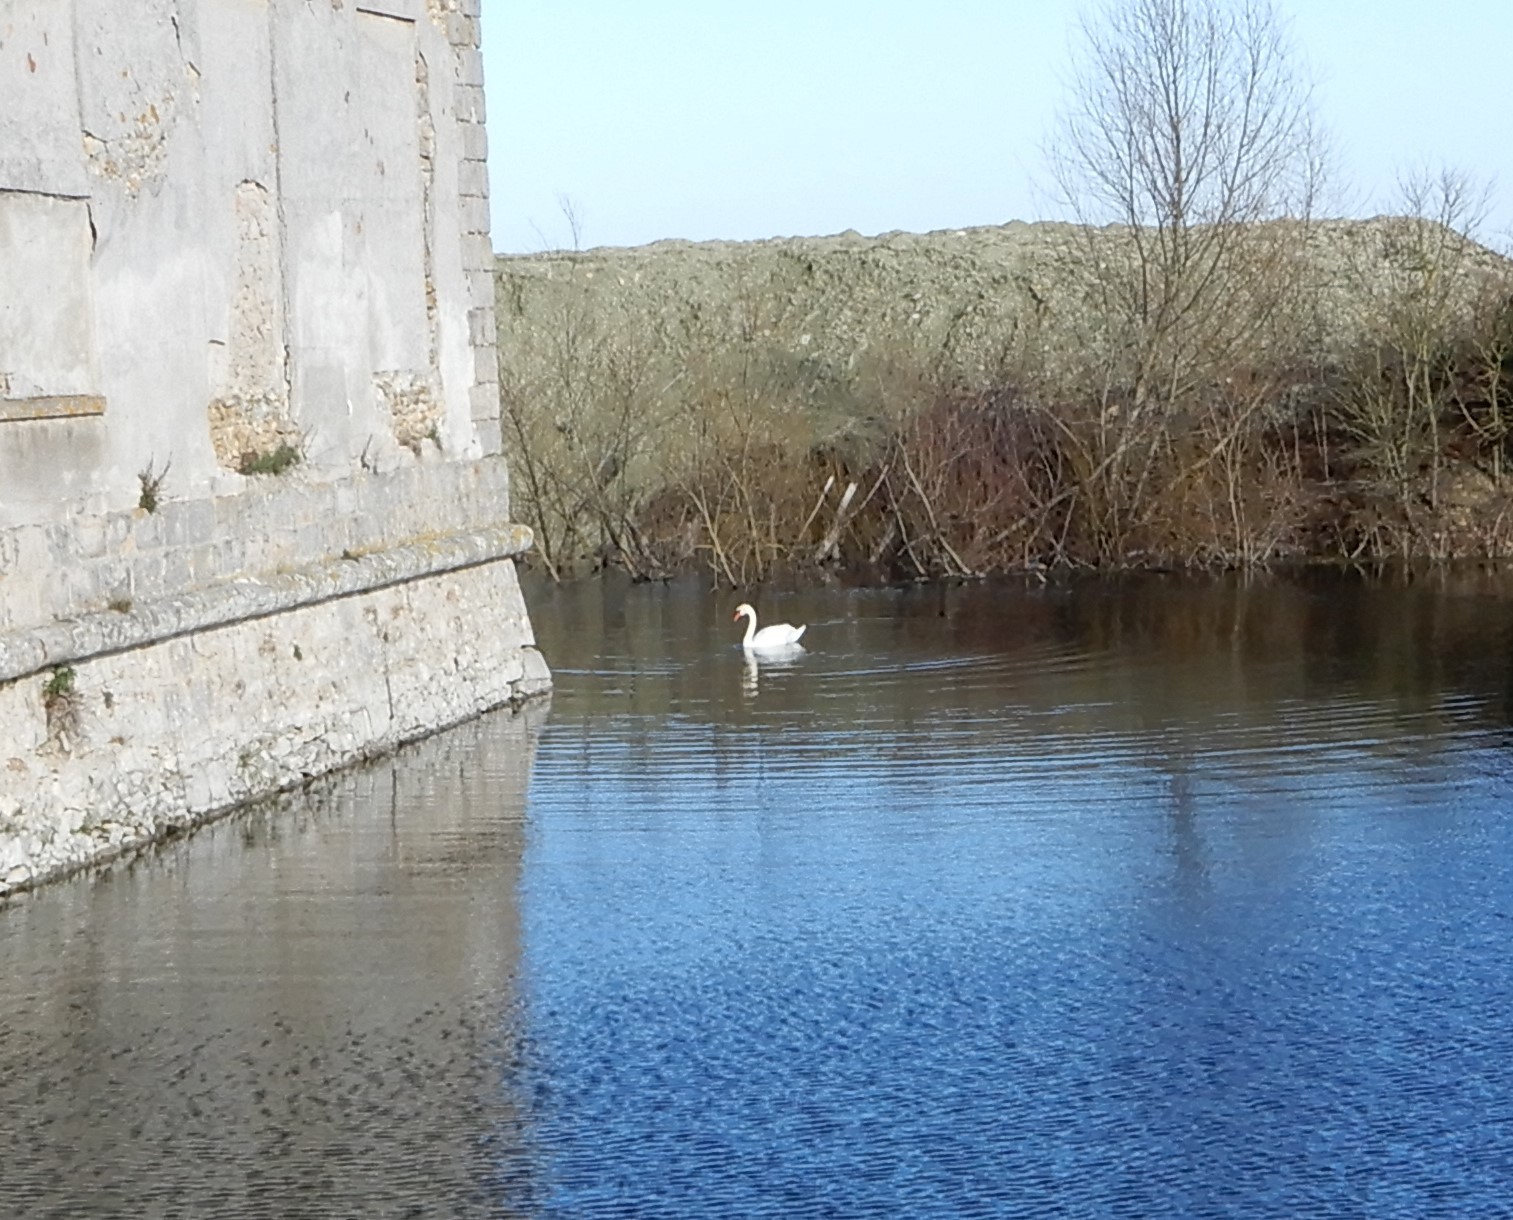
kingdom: Animalia
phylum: Chordata
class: Aves
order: Anseriformes
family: Anatidae
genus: Cygnus
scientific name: Cygnus olor
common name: Mute swan
